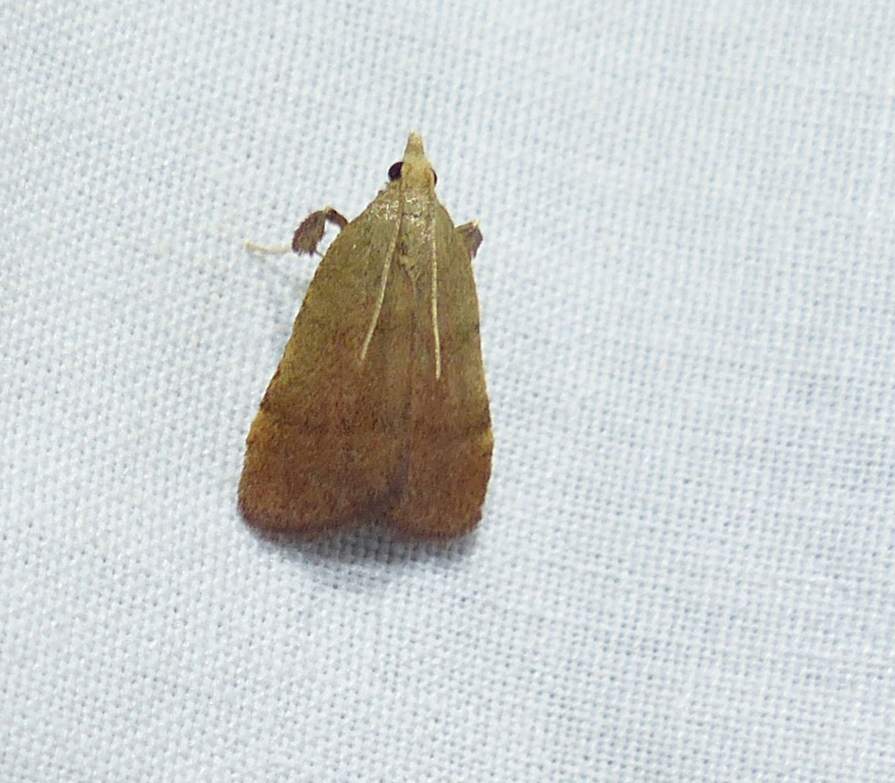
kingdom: Animalia
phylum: Arthropoda
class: Insecta
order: Lepidoptera
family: Pyralidae
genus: Condylolomia
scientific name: Condylolomia participialis
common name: Drab condylolomia moth
